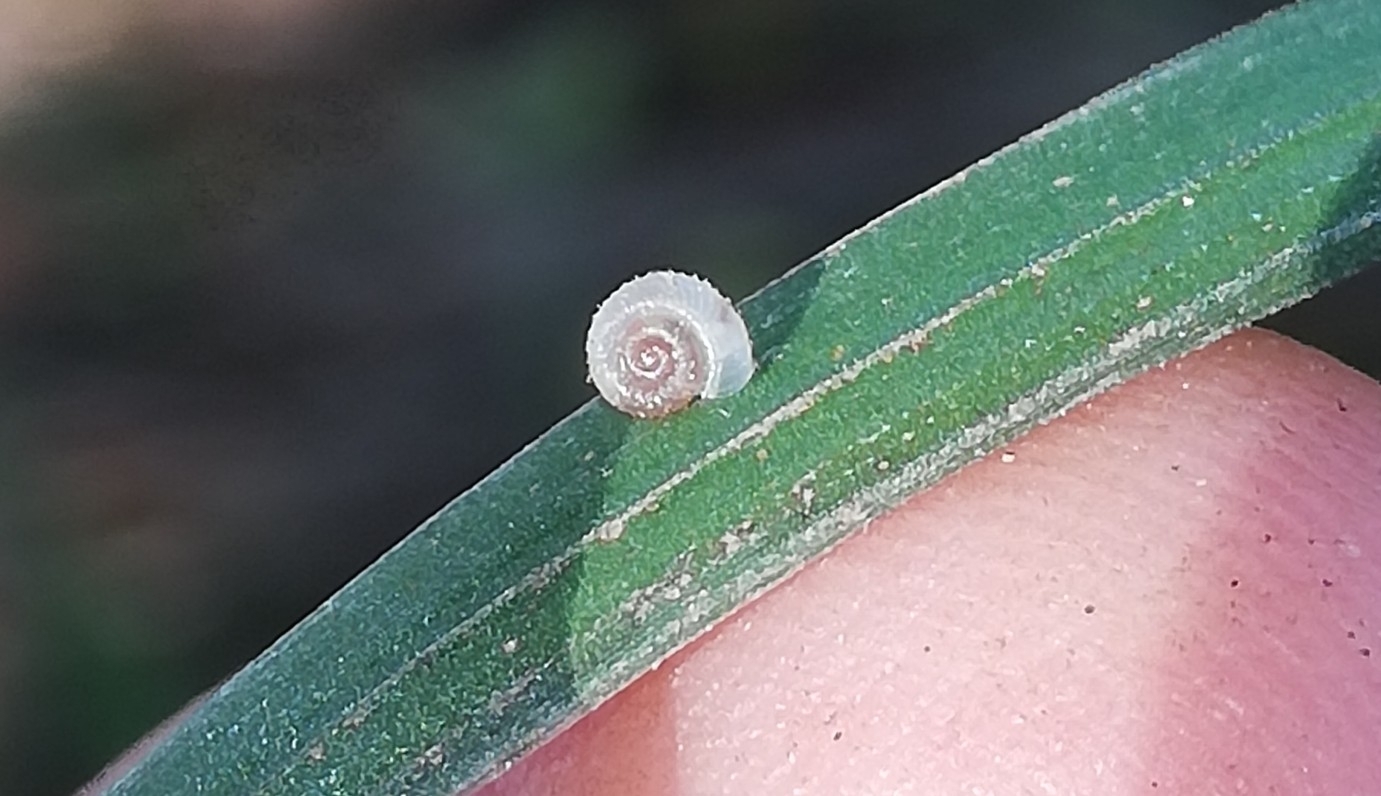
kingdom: Animalia
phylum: Mollusca
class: Gastropoda
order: Stylommatophora
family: Valloniidae
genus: Vallonia
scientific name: Vallonia costata
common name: Ribbed grass snail
